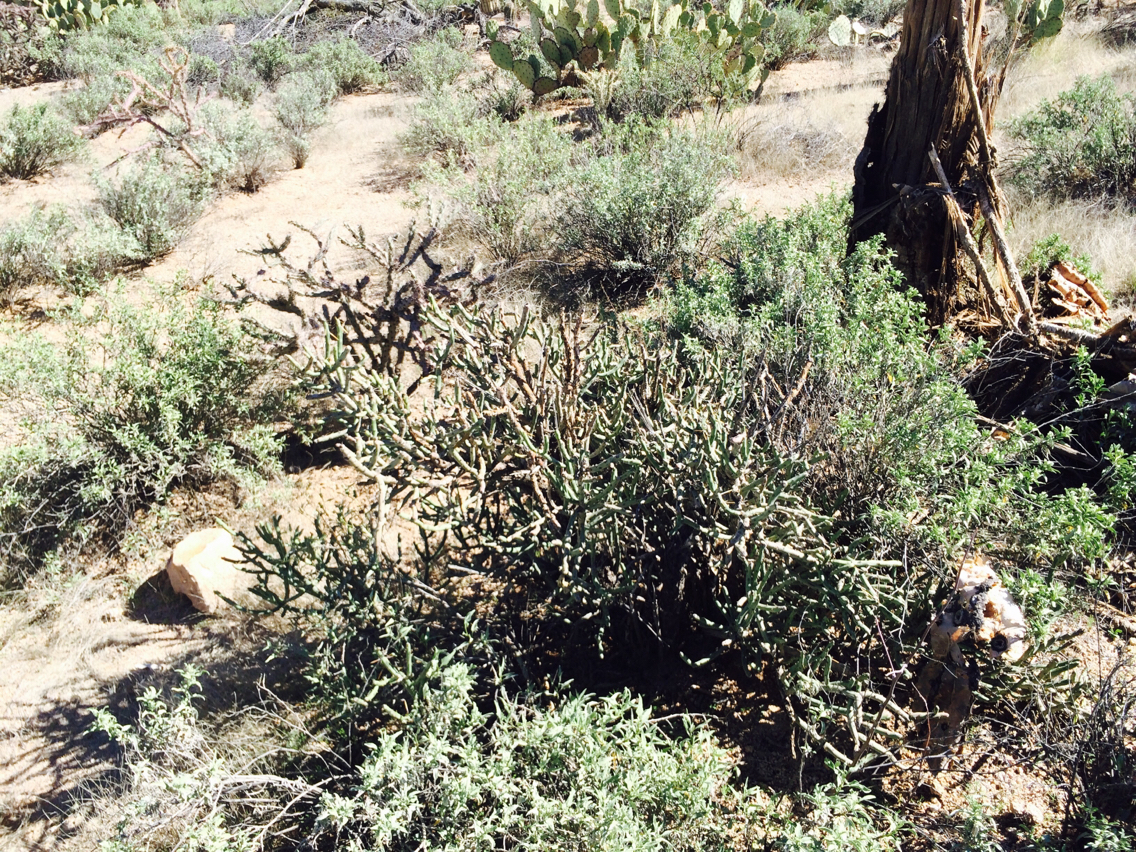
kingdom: Plantae
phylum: Tracheophyta
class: Magnoliopsida
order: Caryophyllales
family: Cactaceae
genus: Cylindropuntia
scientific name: Cylindropuntia arbuscula
